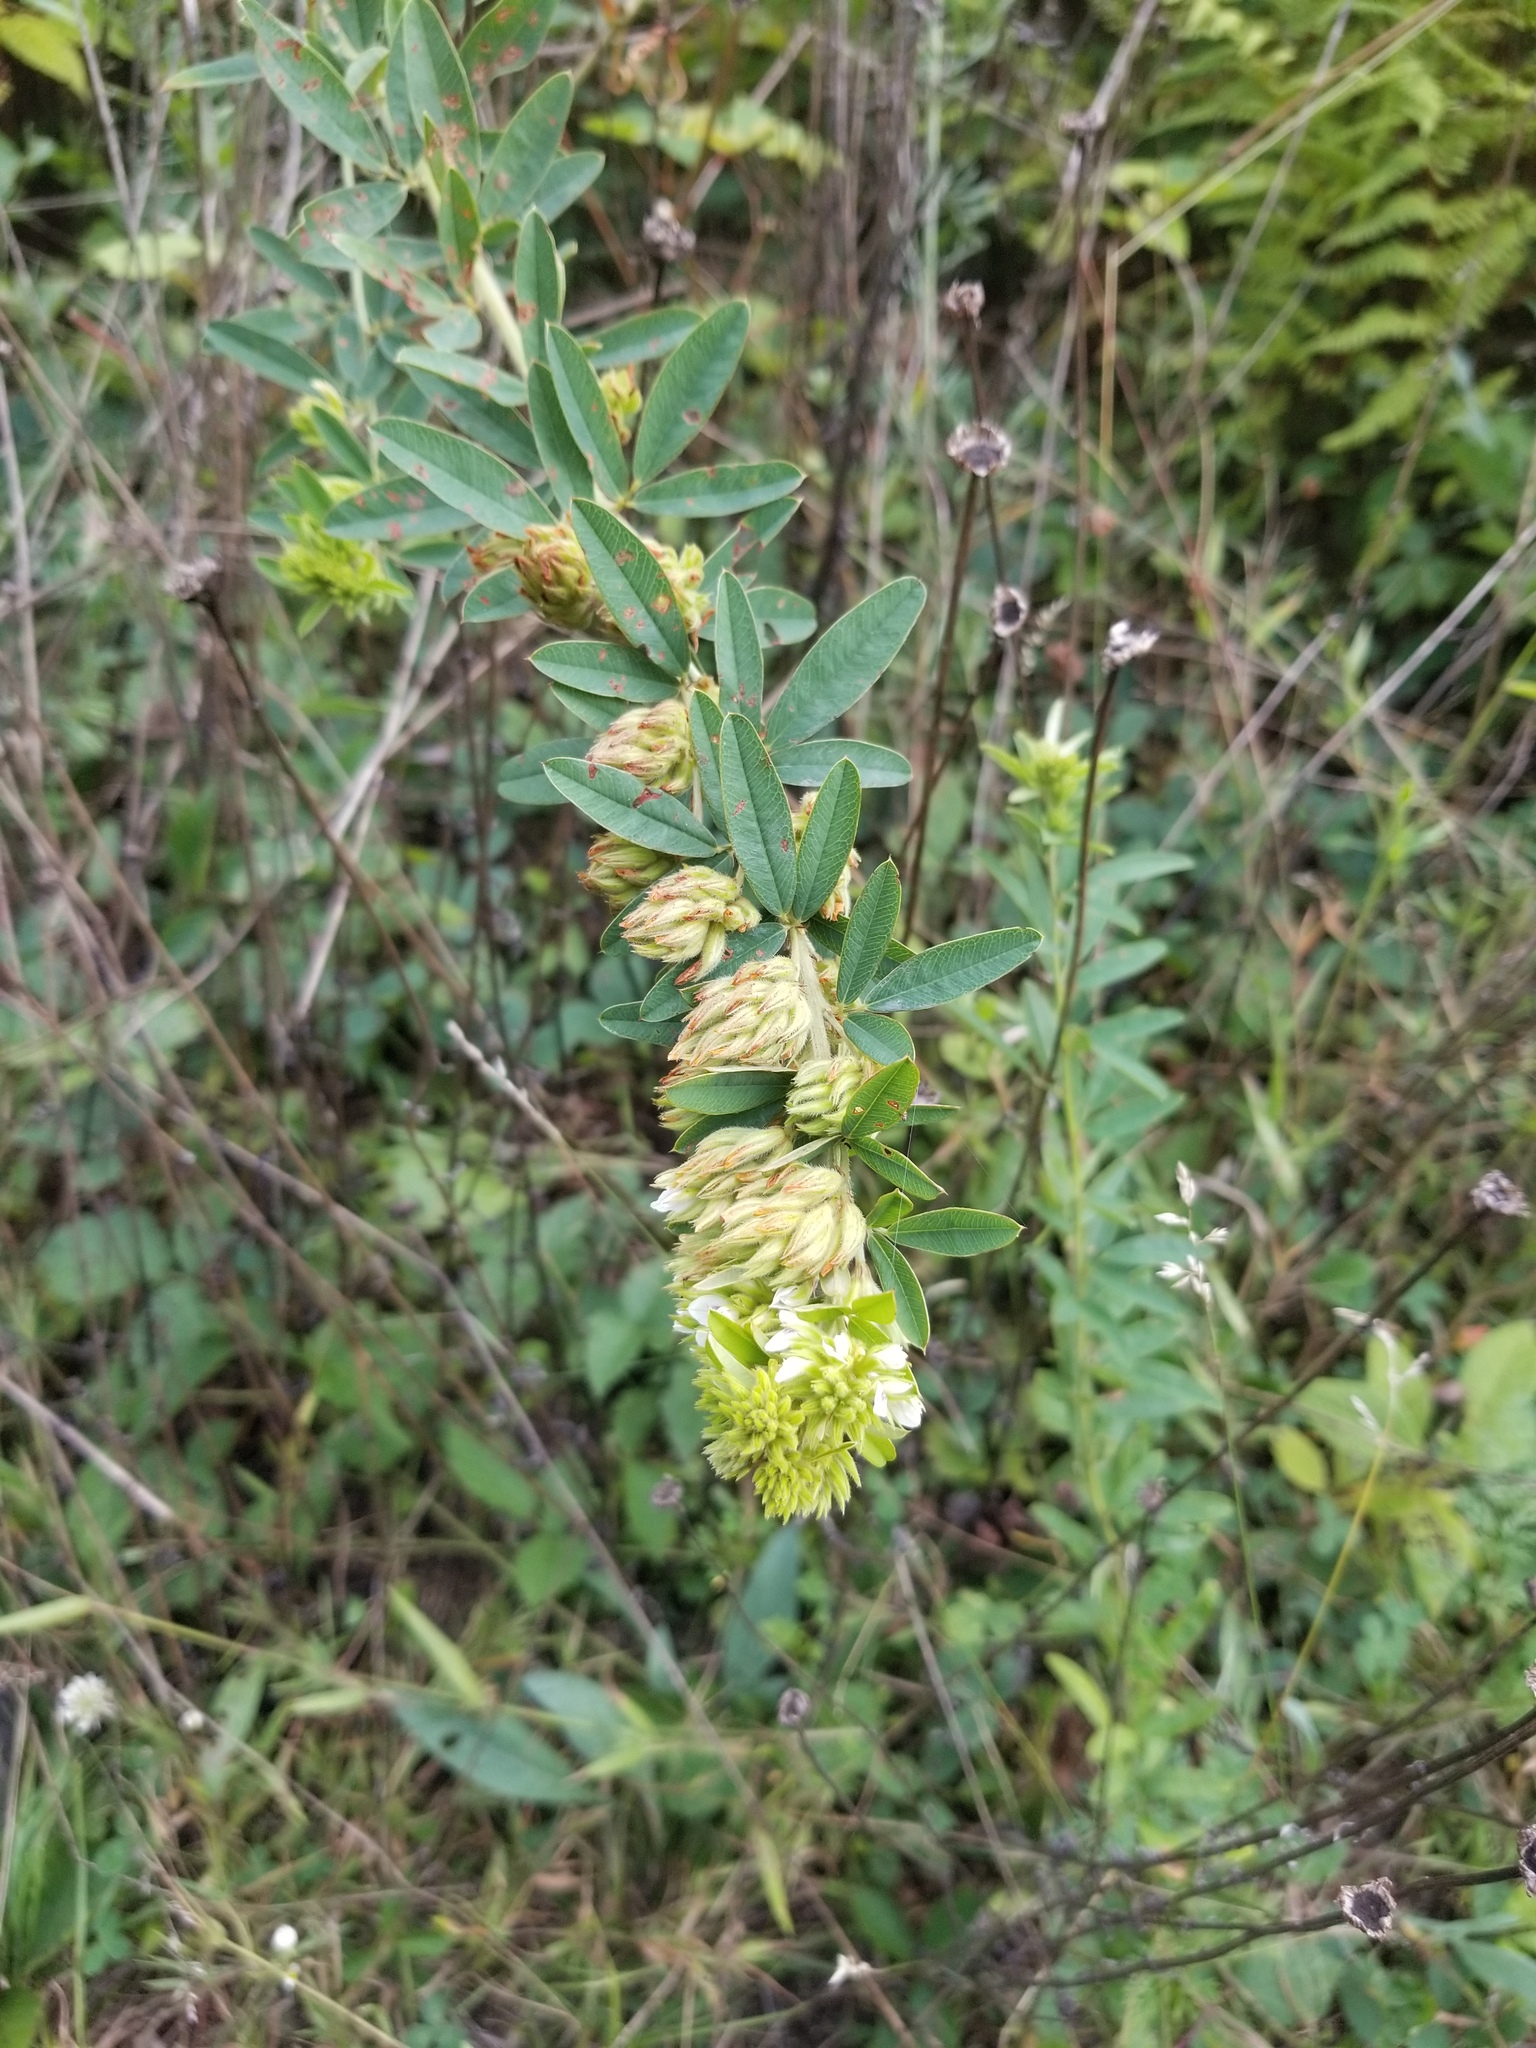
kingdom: Plantae
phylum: Tracheophyta
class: Magnoliopsida
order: Fabales
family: Fabaceae
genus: Lespedeza
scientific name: Lespedeza capitata
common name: Dusty clover
